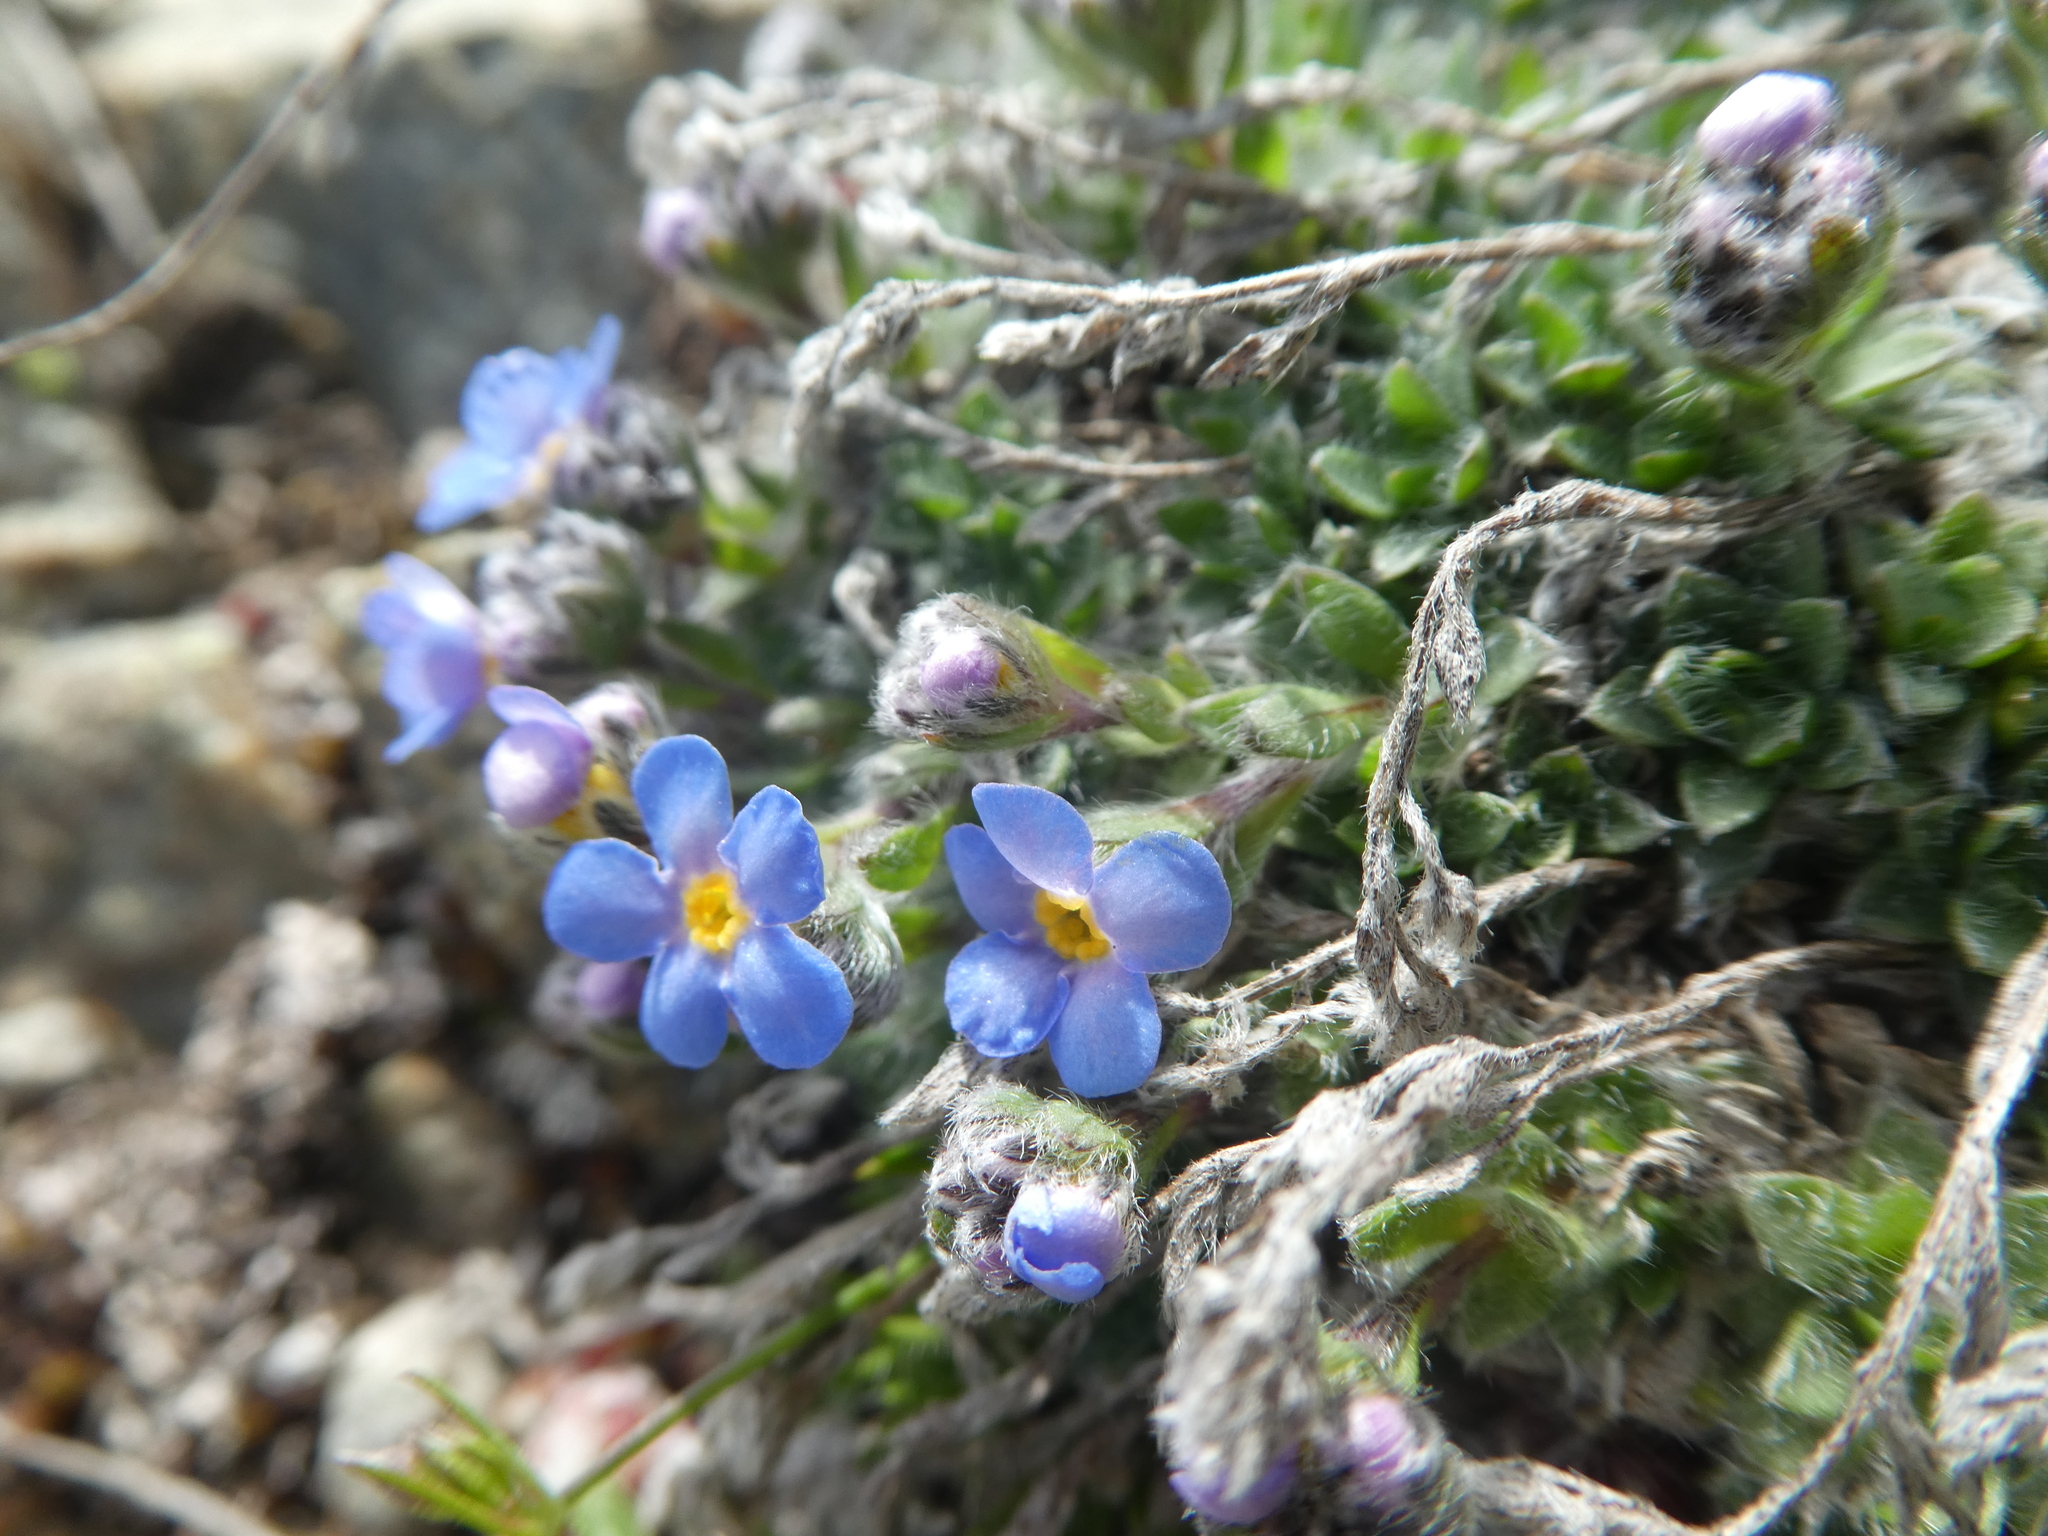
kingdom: Plantae
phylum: Tracheophyta
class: Magnoliopsida
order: Boraginales
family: Boraginaceae
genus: Eritrichium
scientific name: Eritrichium nanum
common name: King-of-the-alps
